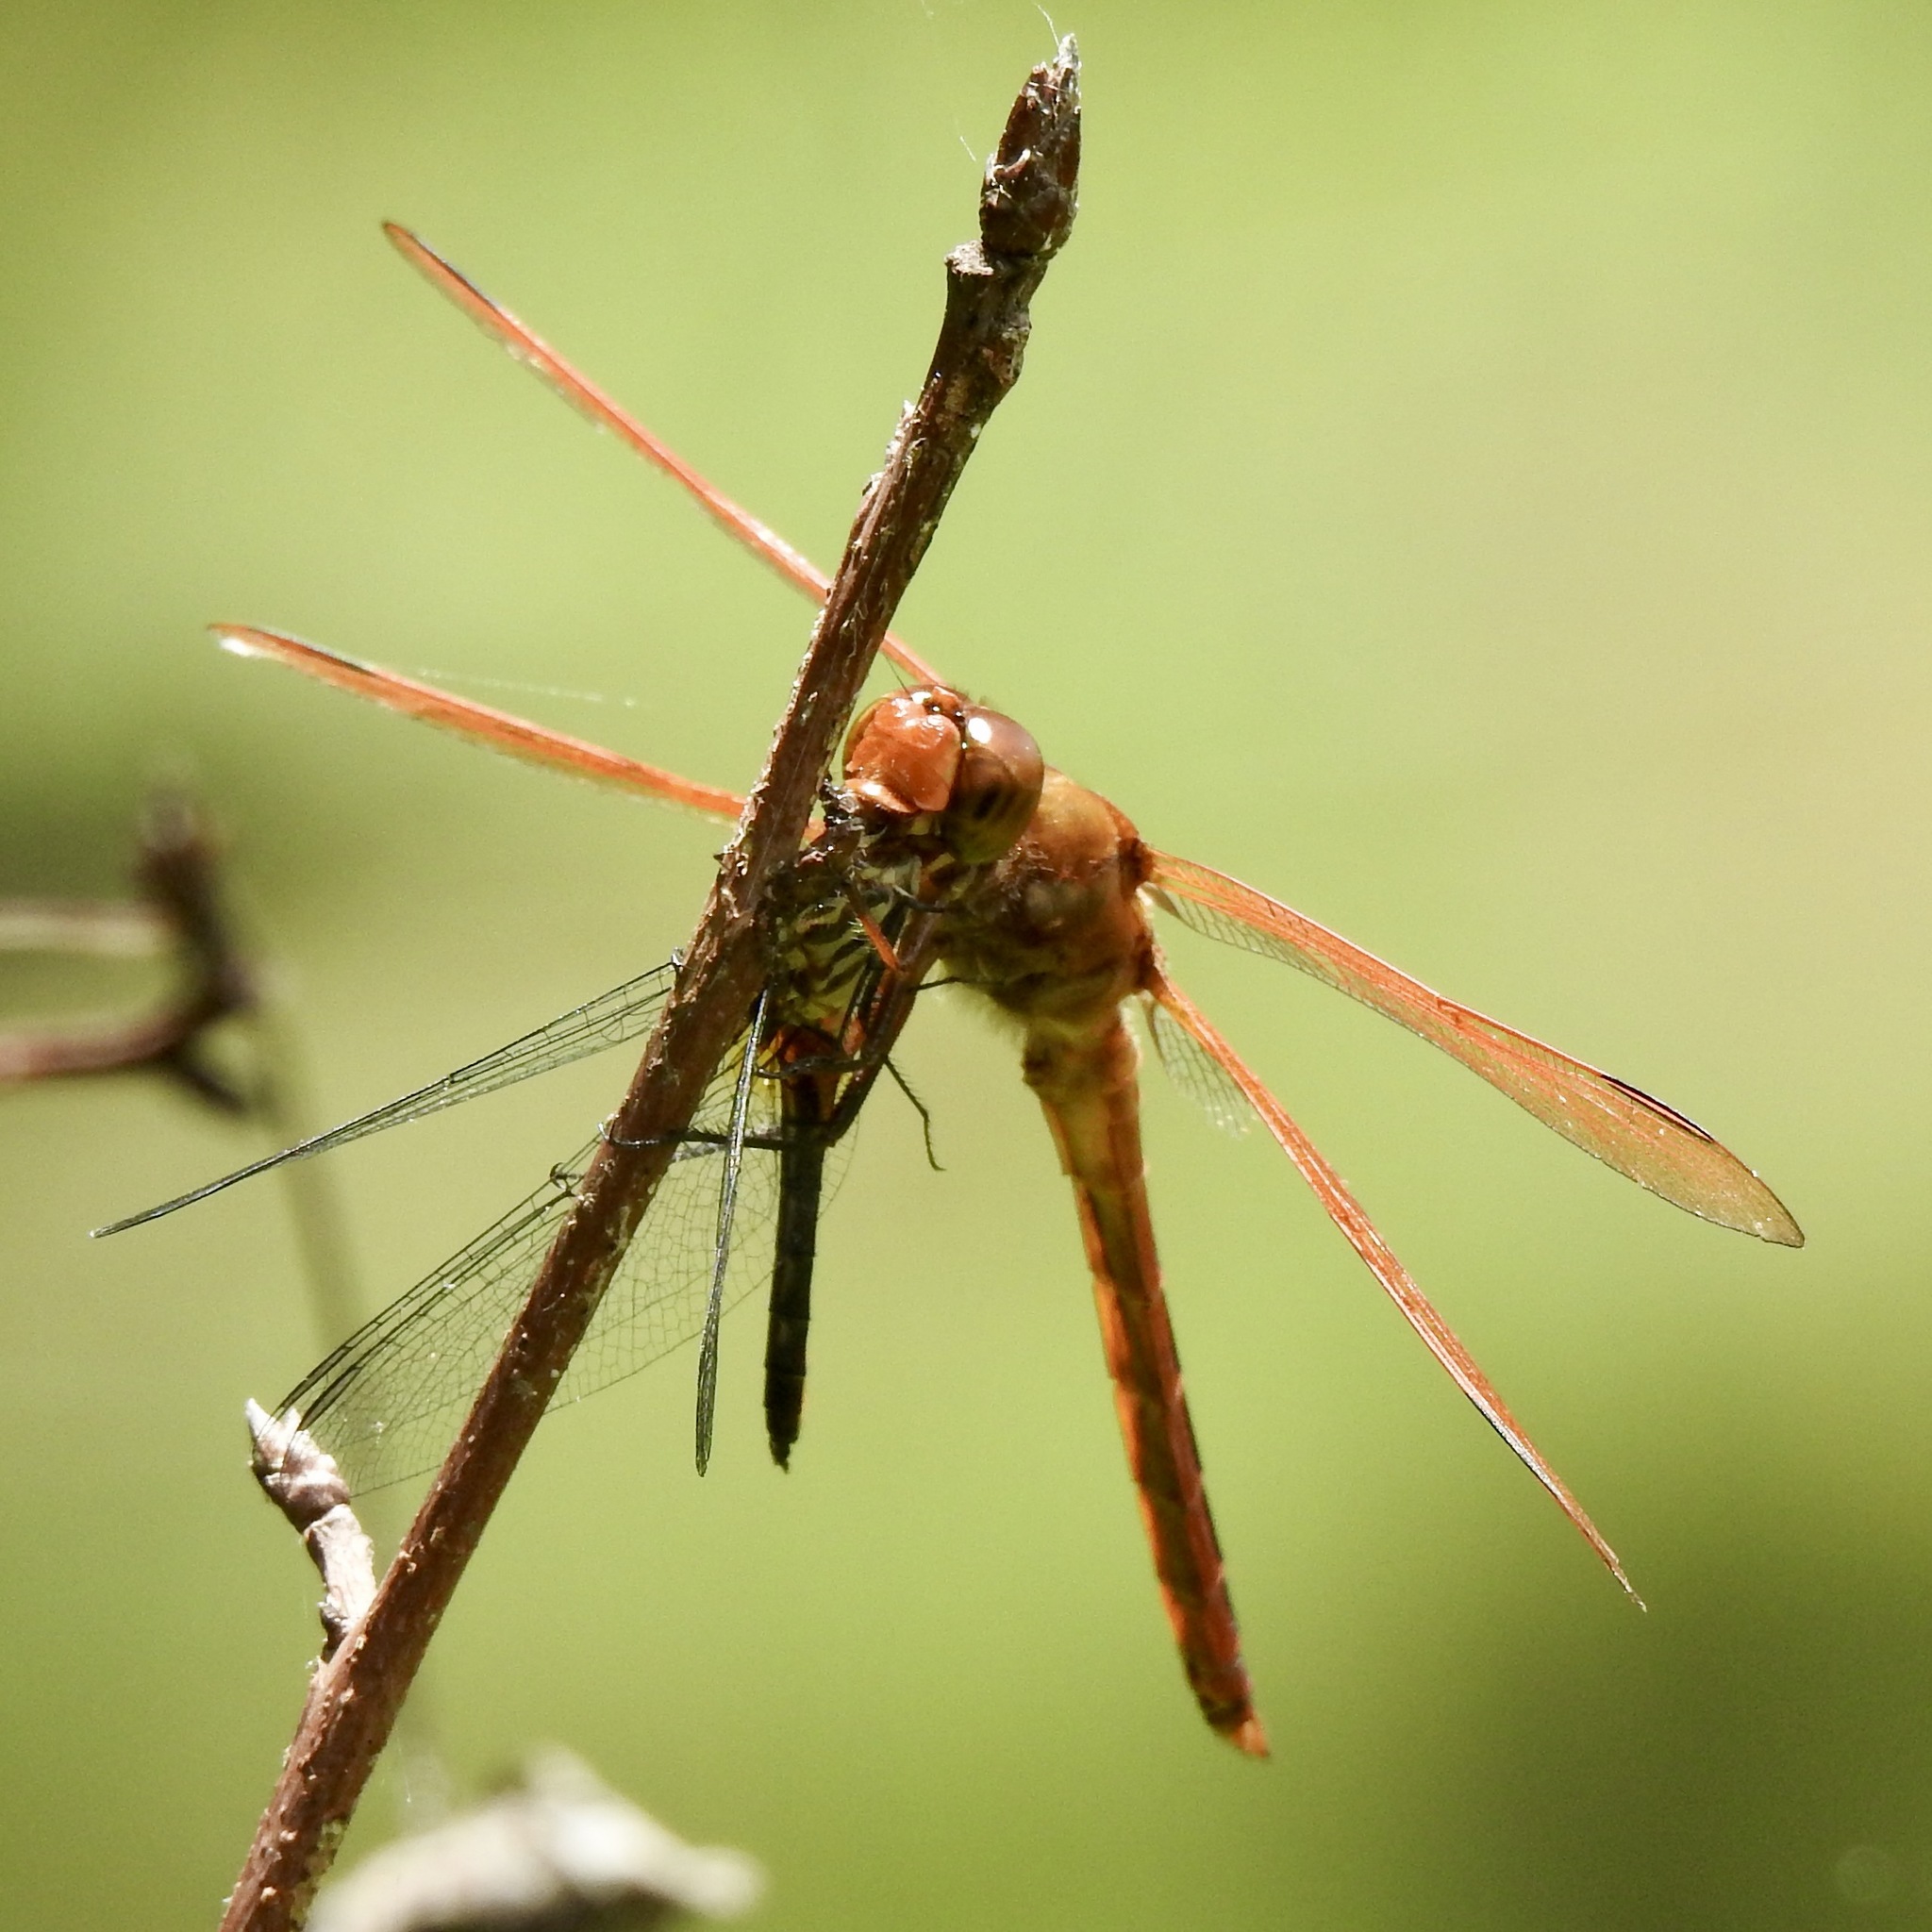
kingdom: Animalia
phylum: Arthropoda
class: Insecta
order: Odonata
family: Libellulidae
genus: Libellula
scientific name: Libellula auripennis
